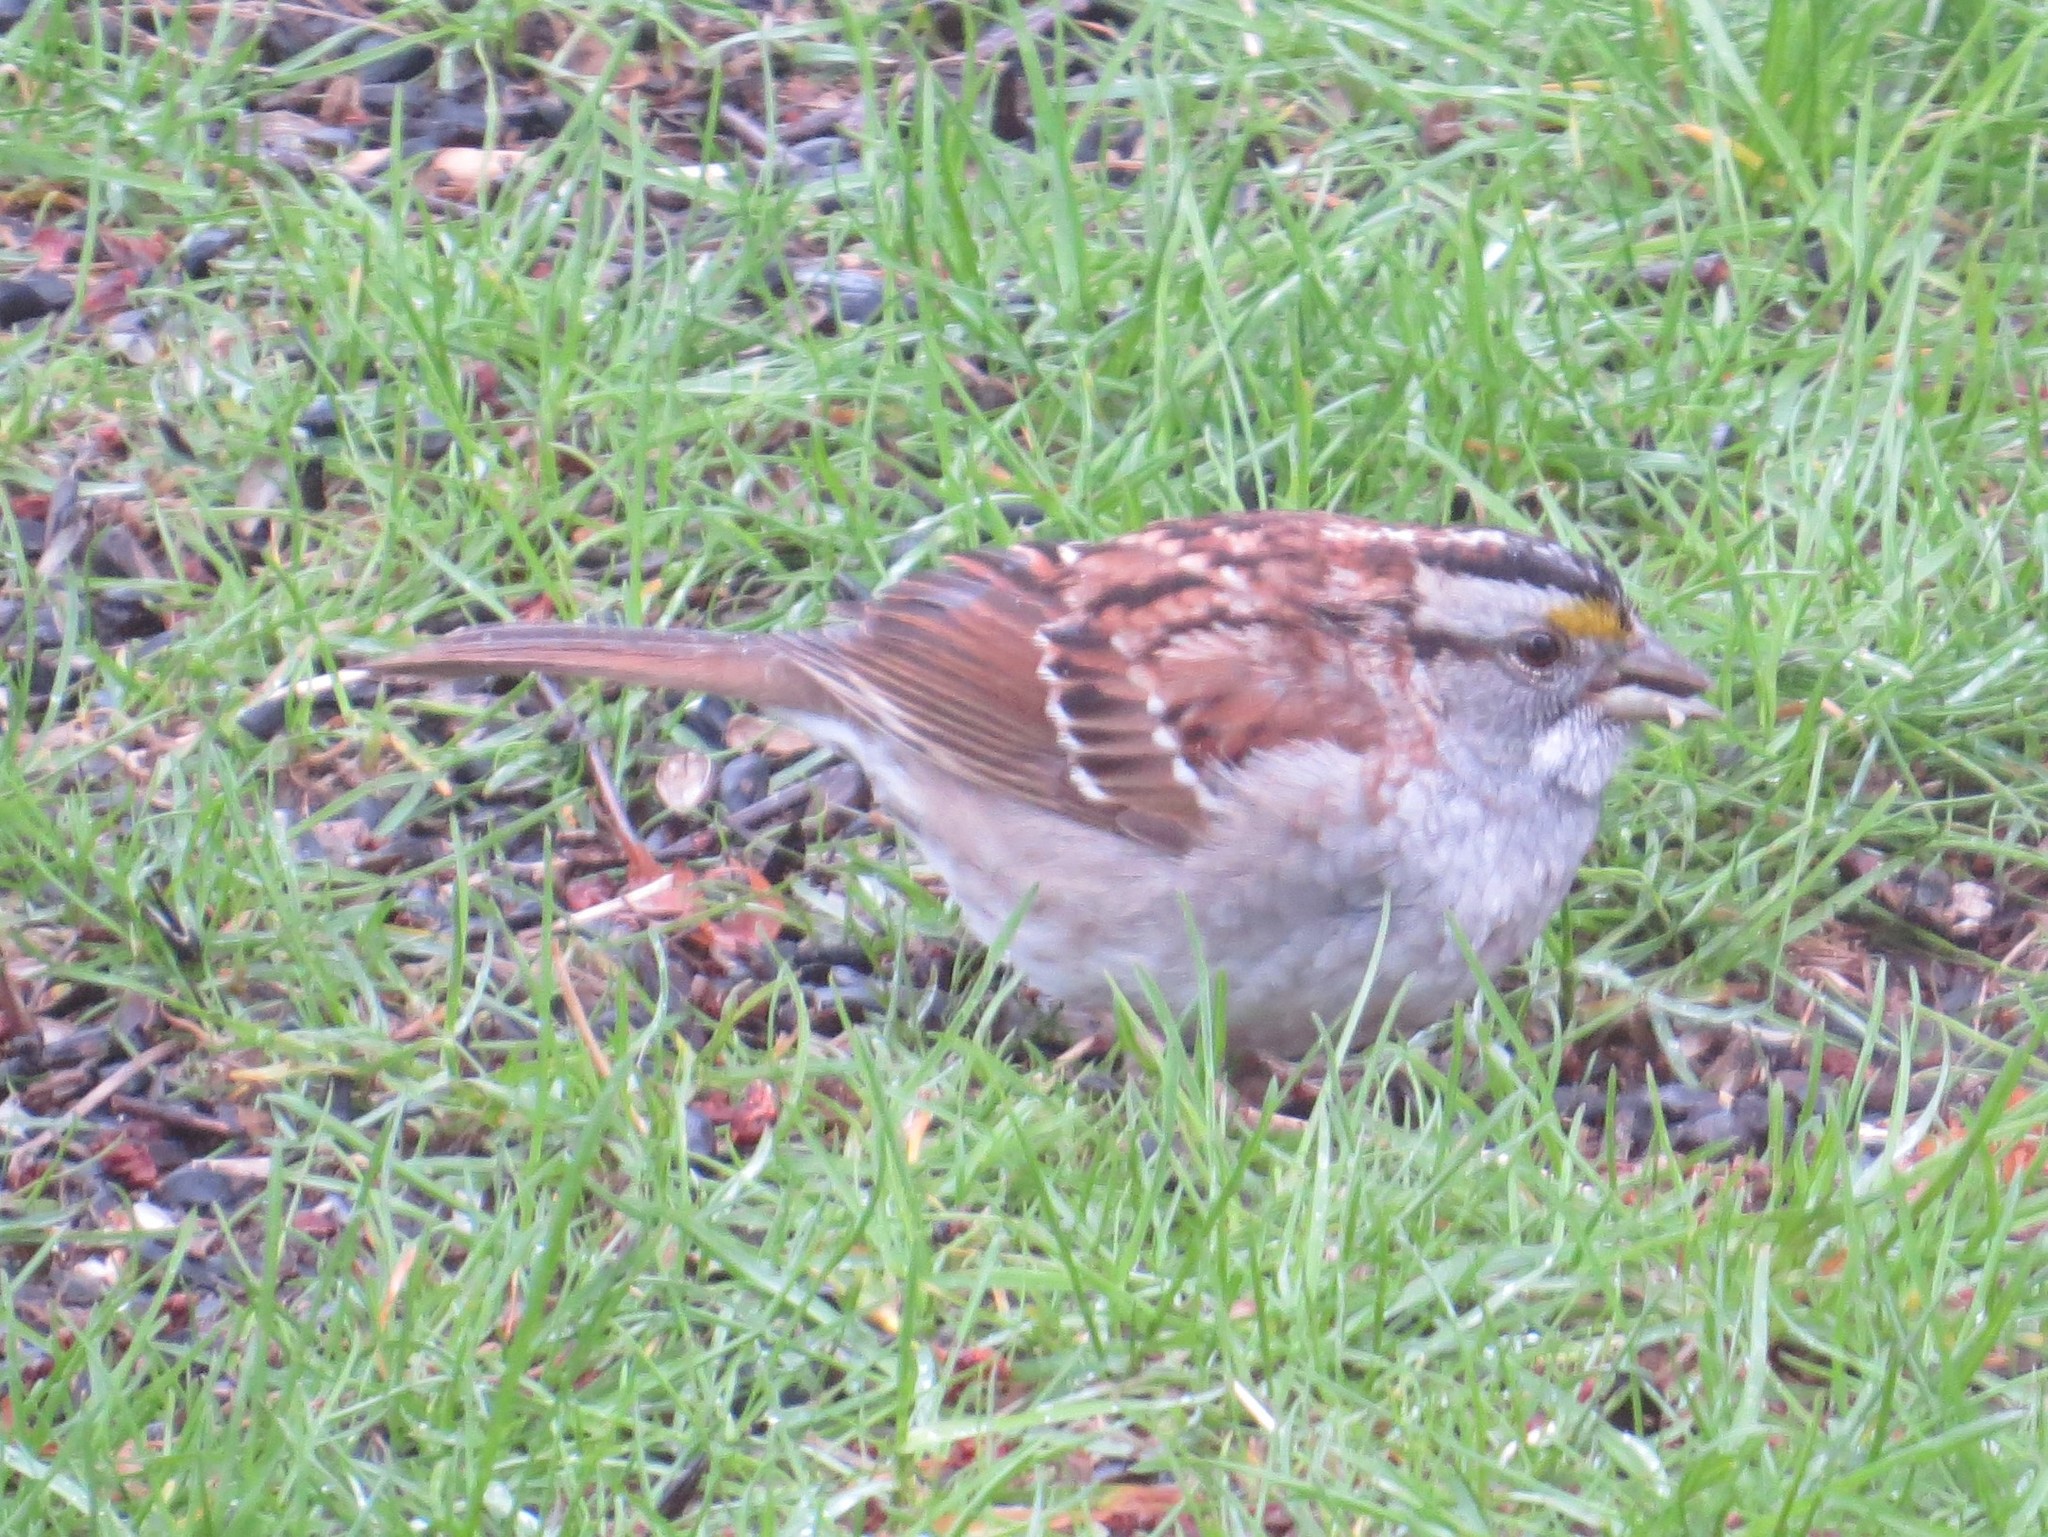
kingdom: Animalia
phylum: Chordata
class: Aves
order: Passeriformes
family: Passerellidae
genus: Zonotrichia
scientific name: Zonotrichia albicollis
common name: White-throated sparrow
